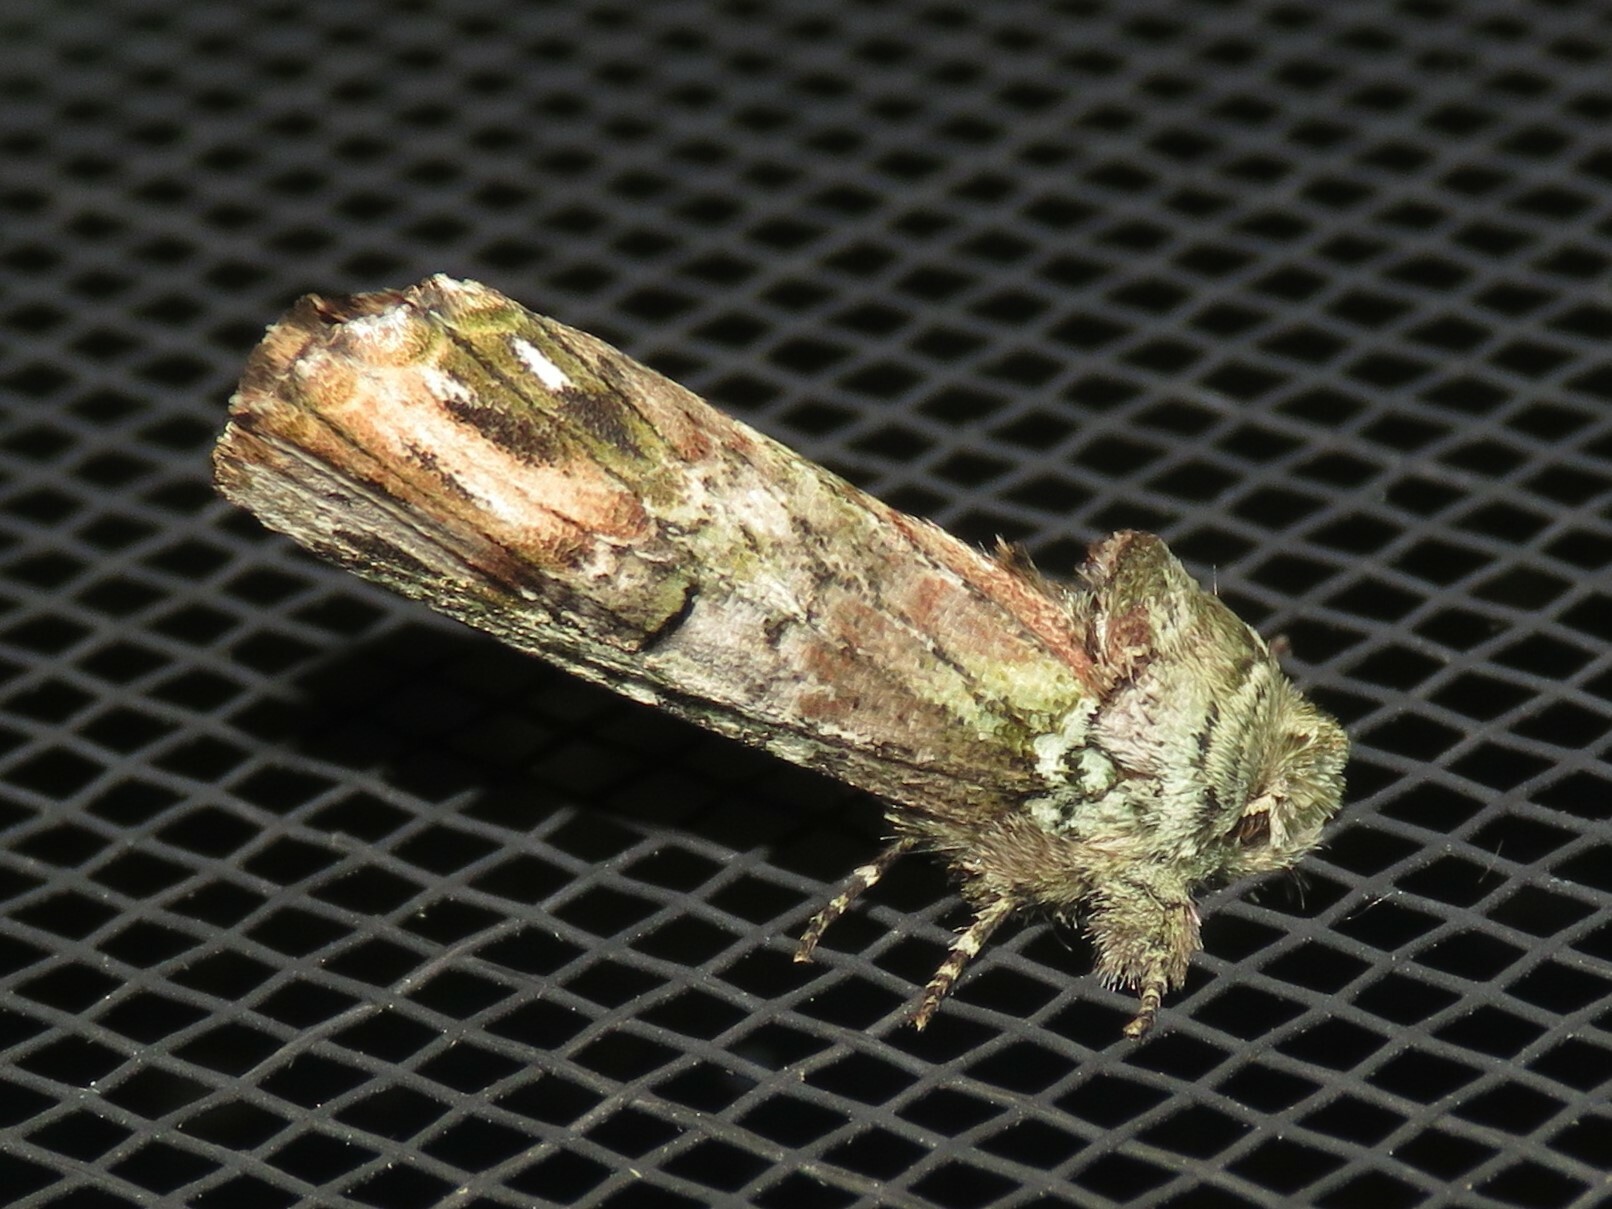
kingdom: Animalia
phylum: Arthropoda
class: Insecta
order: Lepidoptera
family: Notodontidae
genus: Schizura
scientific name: Schizura
